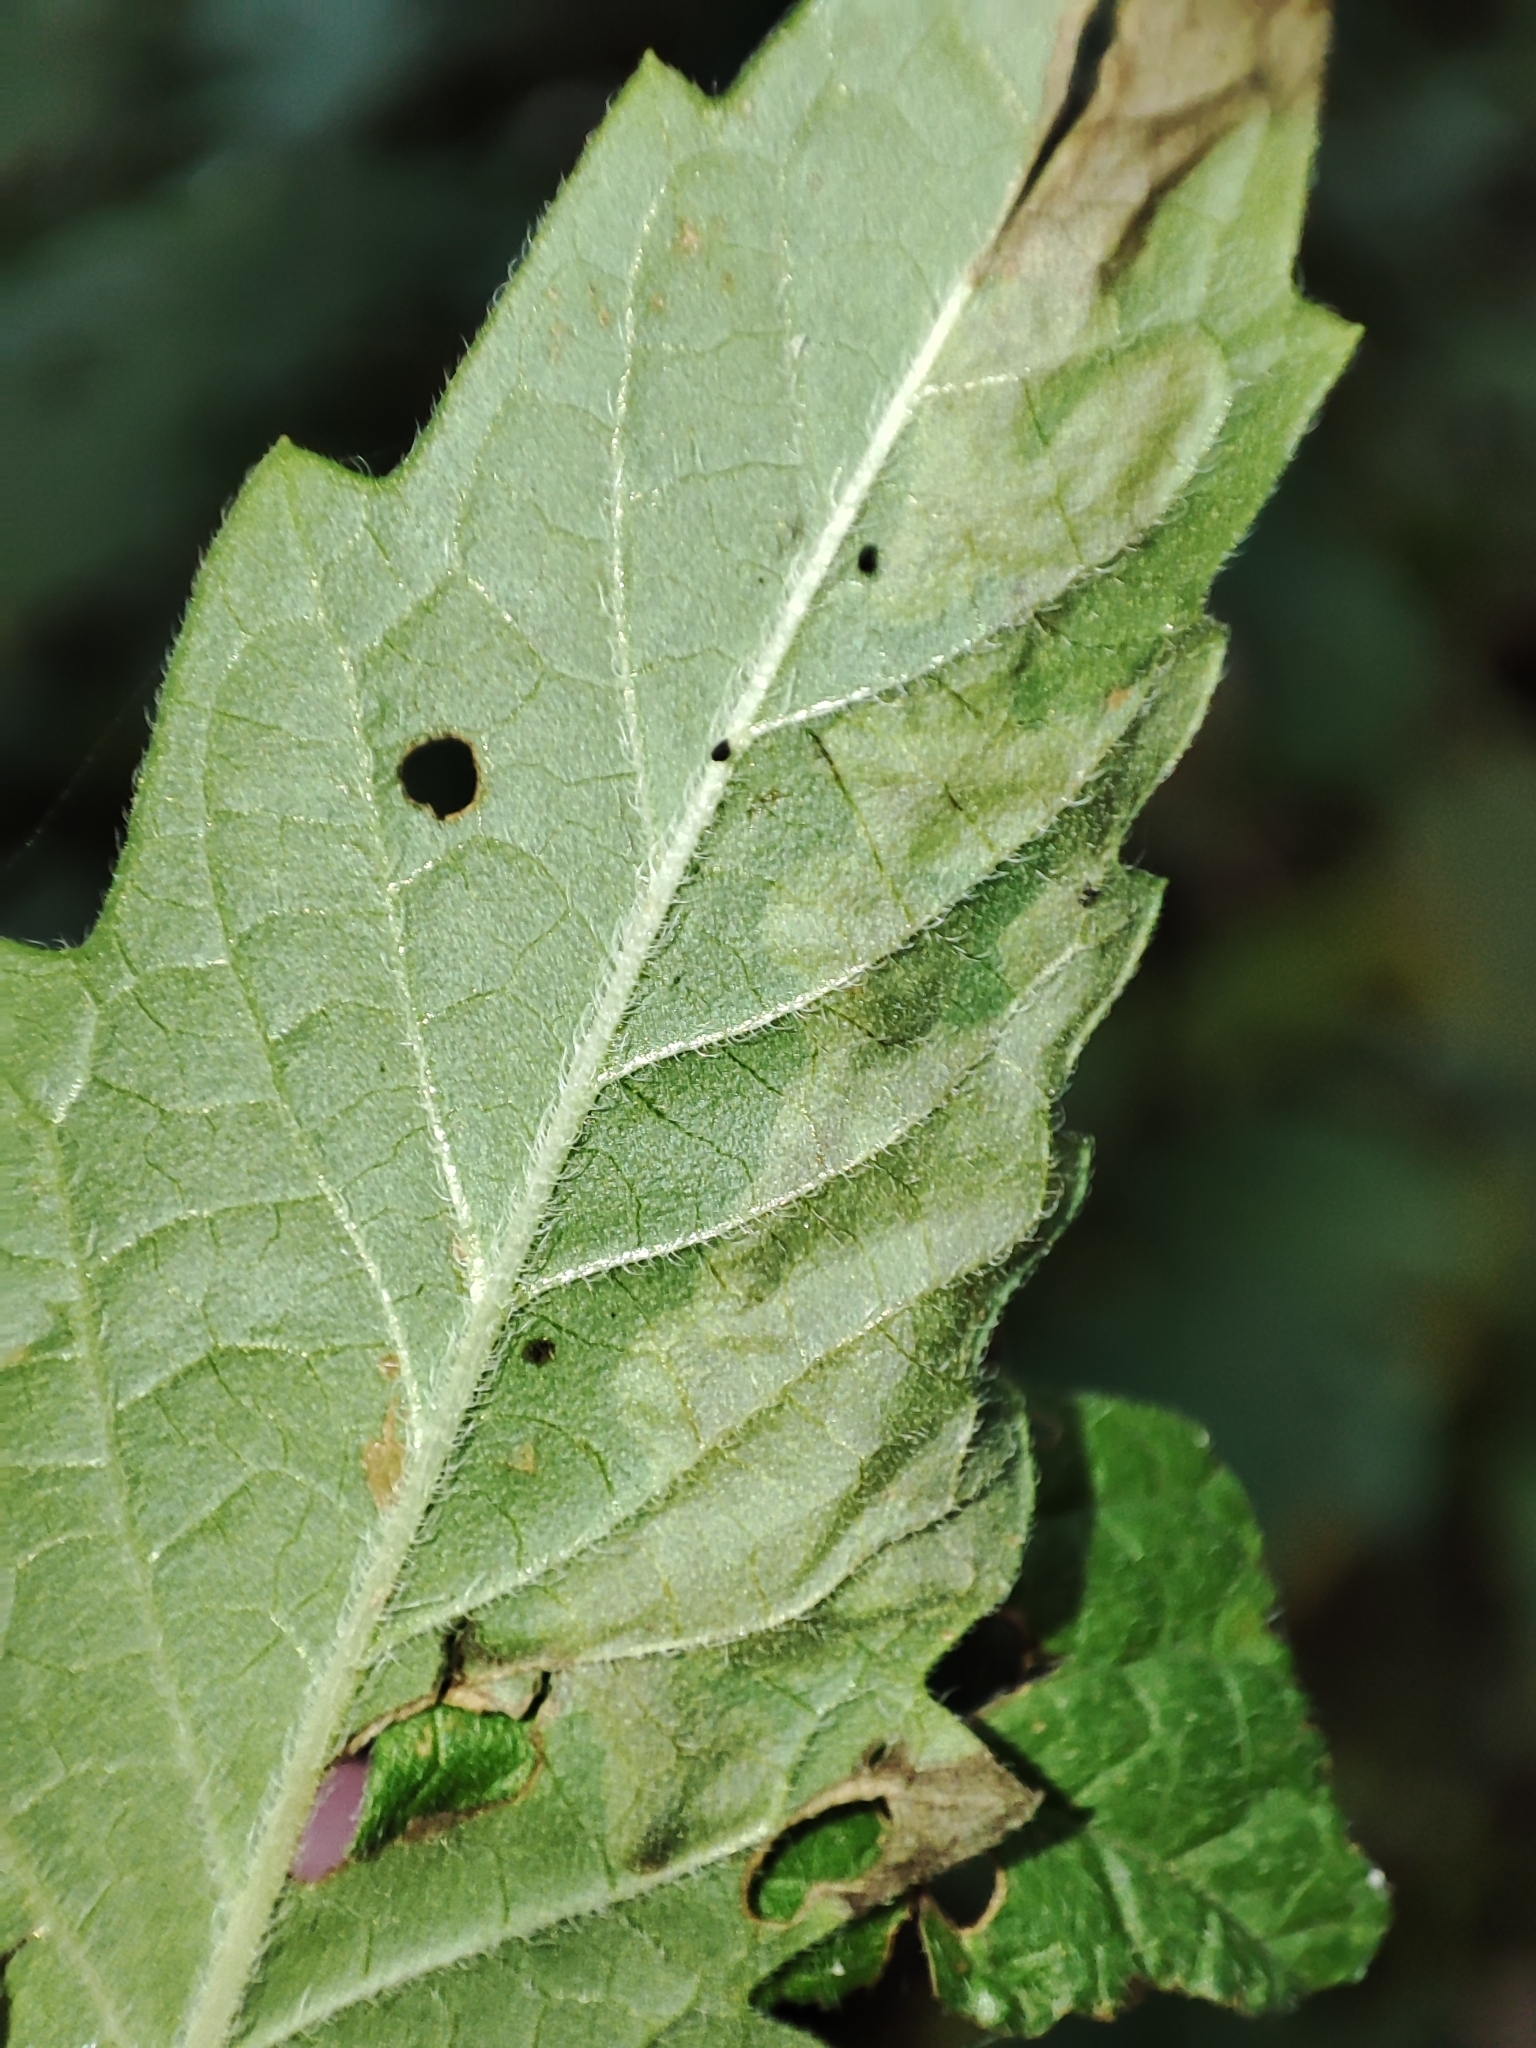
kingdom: Animalia
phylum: Arthropoda
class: Insecta
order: Diptera
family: Agromyzidae
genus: Phytomyza
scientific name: Phytomyza lycopi
